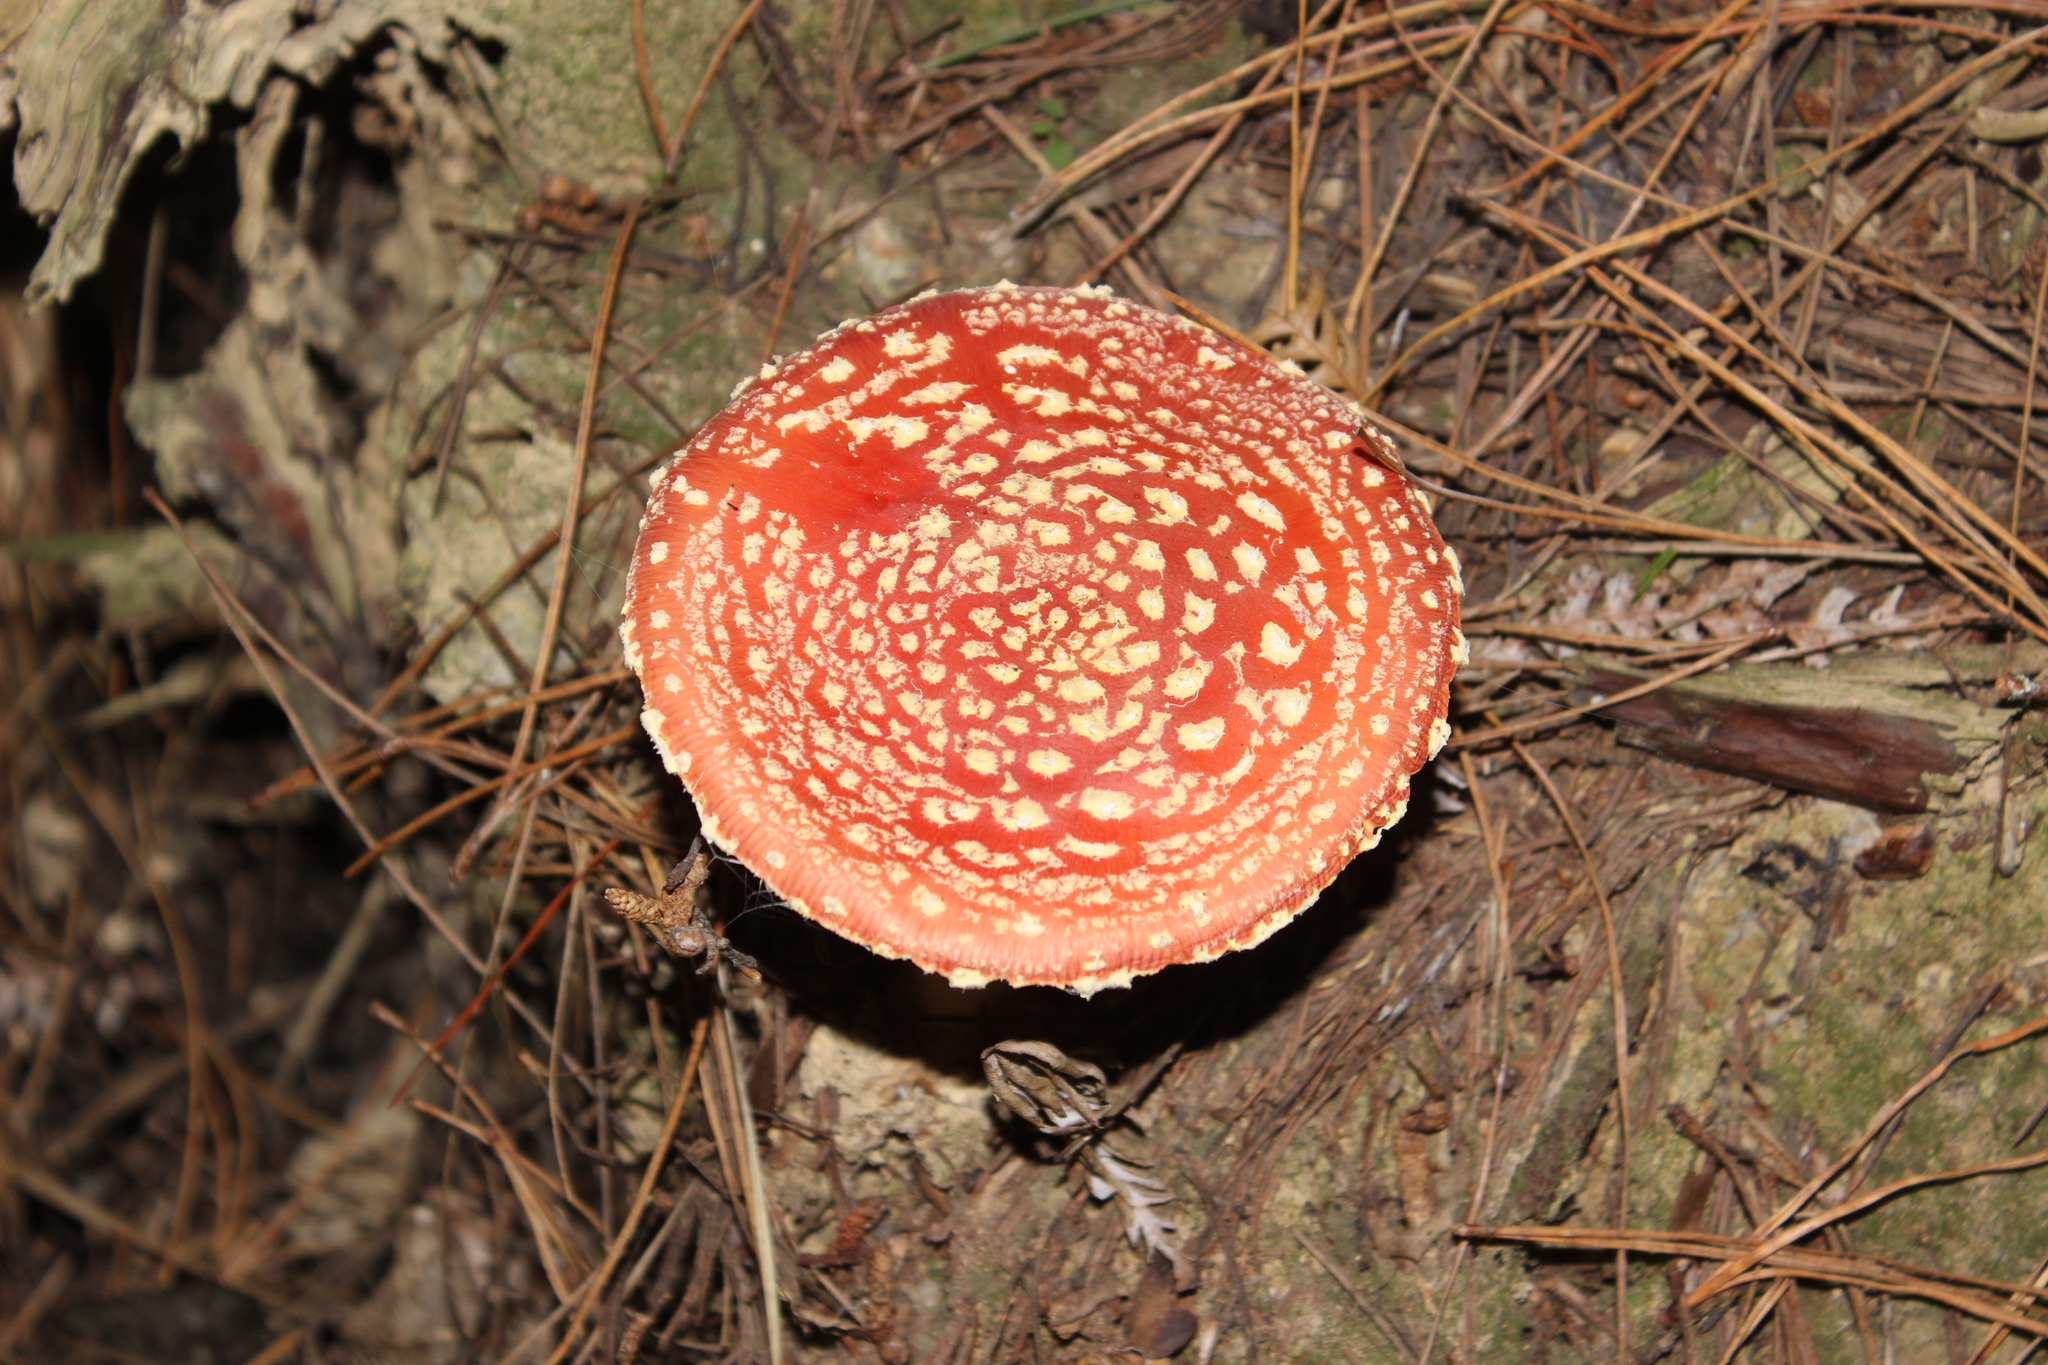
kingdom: Fungi
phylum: Basidiomycota
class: Agaricomycetes
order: Agaricales
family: Amanitaceae
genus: Amanita
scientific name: Amanita muscaria
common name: Fly agaric
